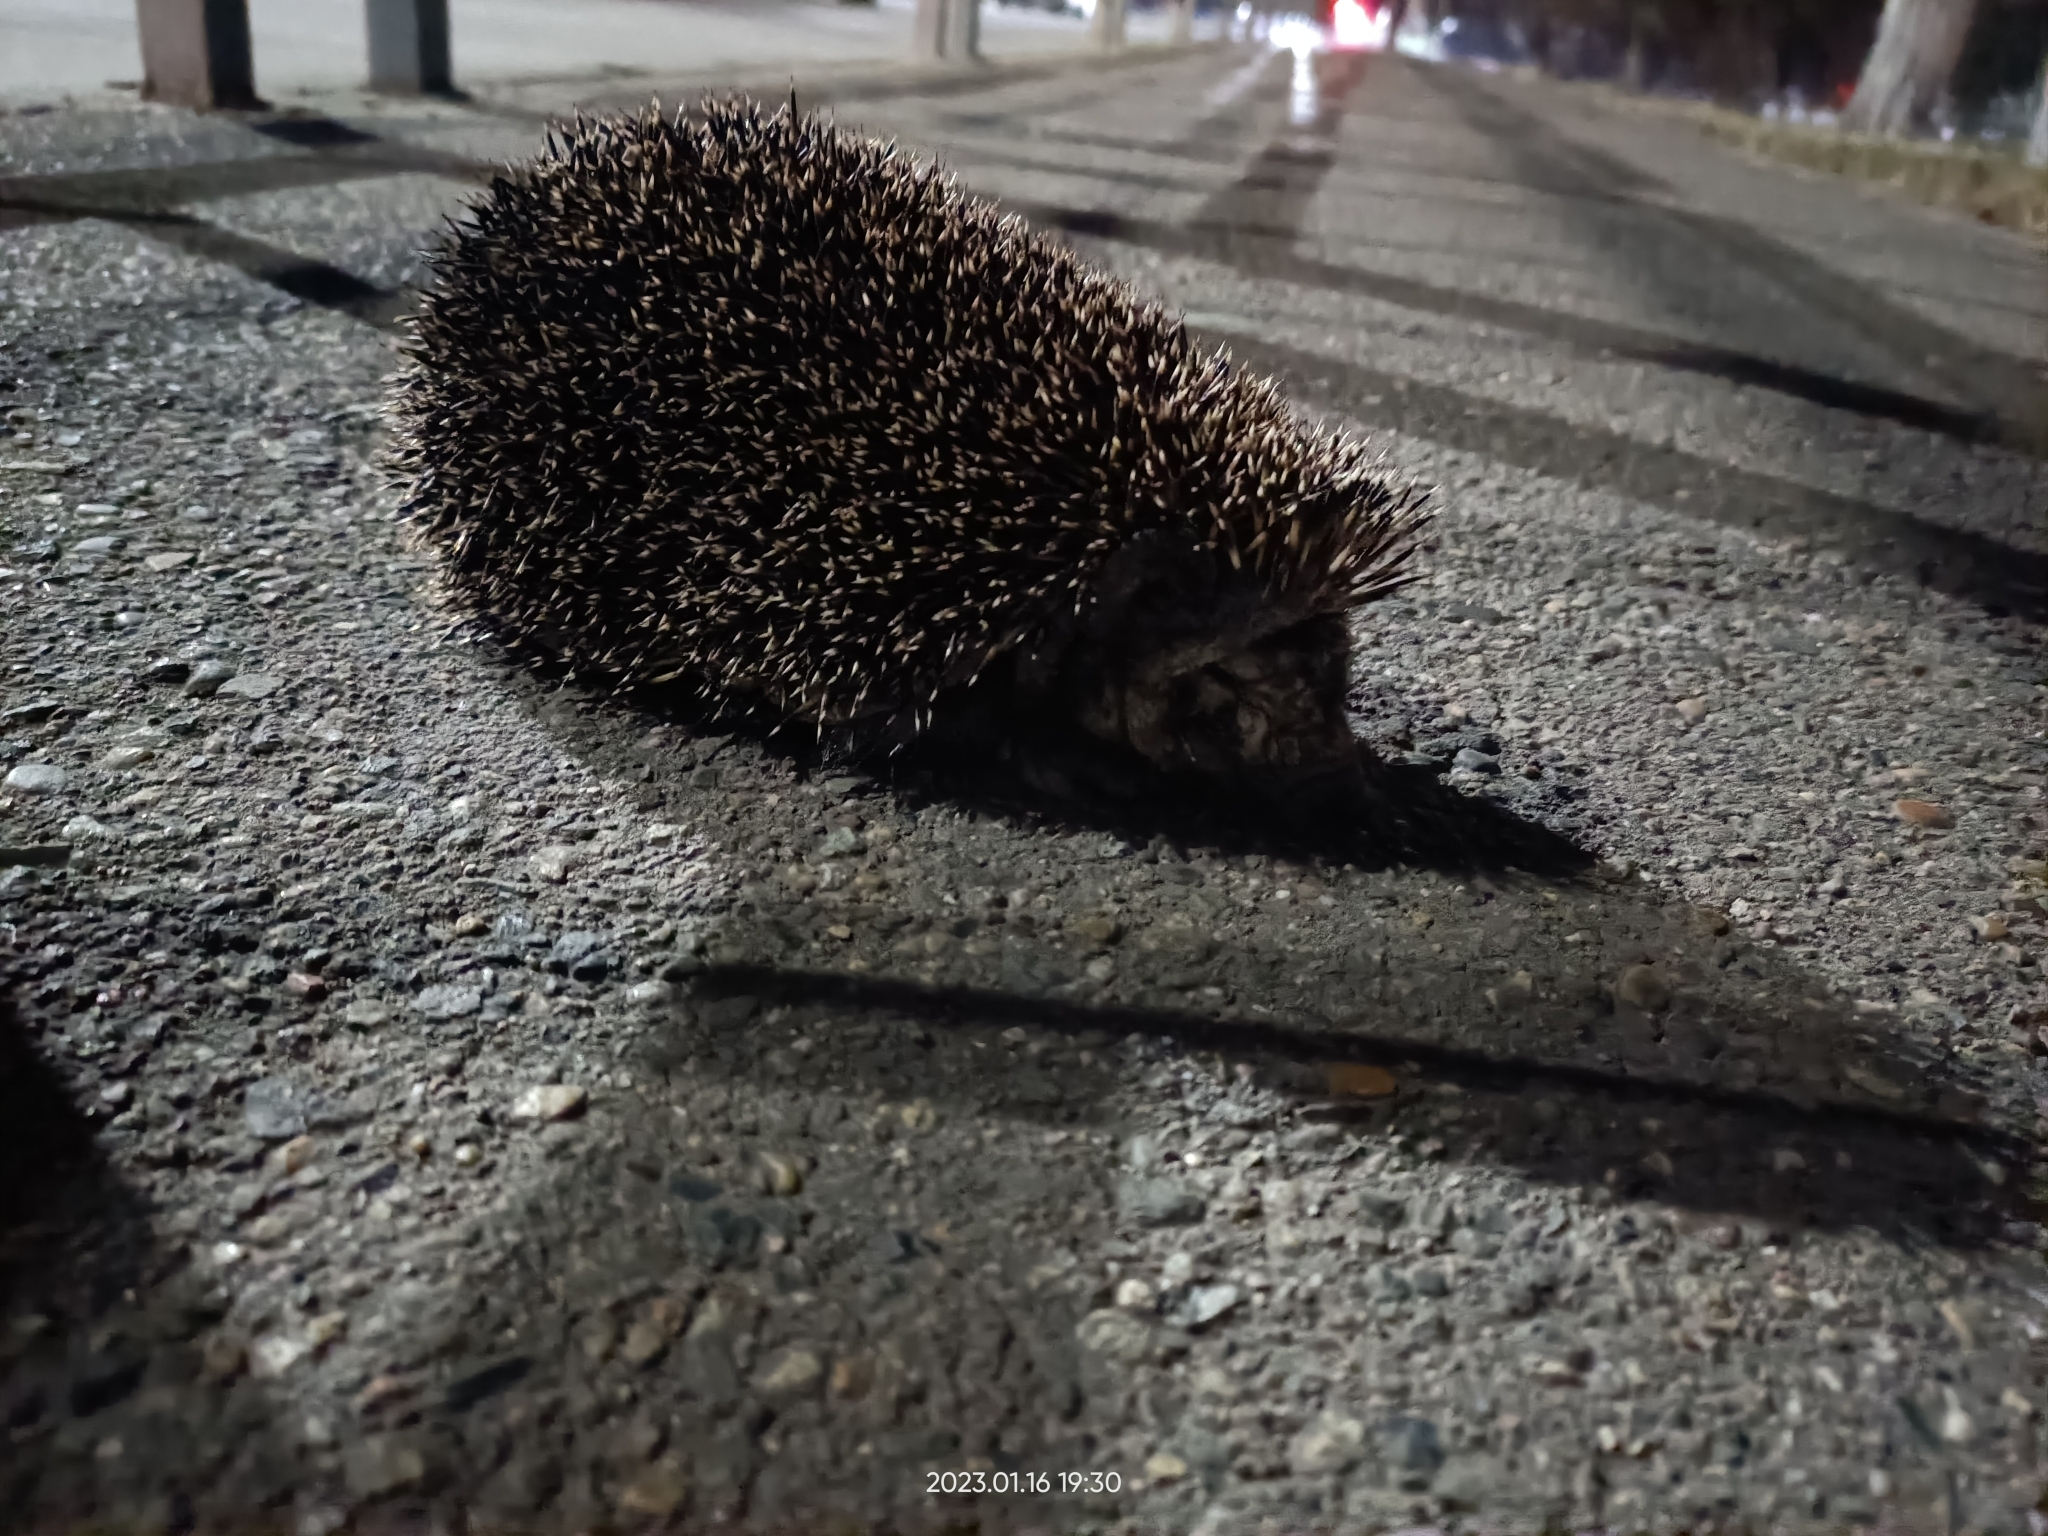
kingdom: Animalia
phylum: Chordata
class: Mammalia
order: Erinaceomorpha
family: Erinaceidae
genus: Erinaceus
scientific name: Erinaceus roumanicus
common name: Northern white-breasted hedgehog
